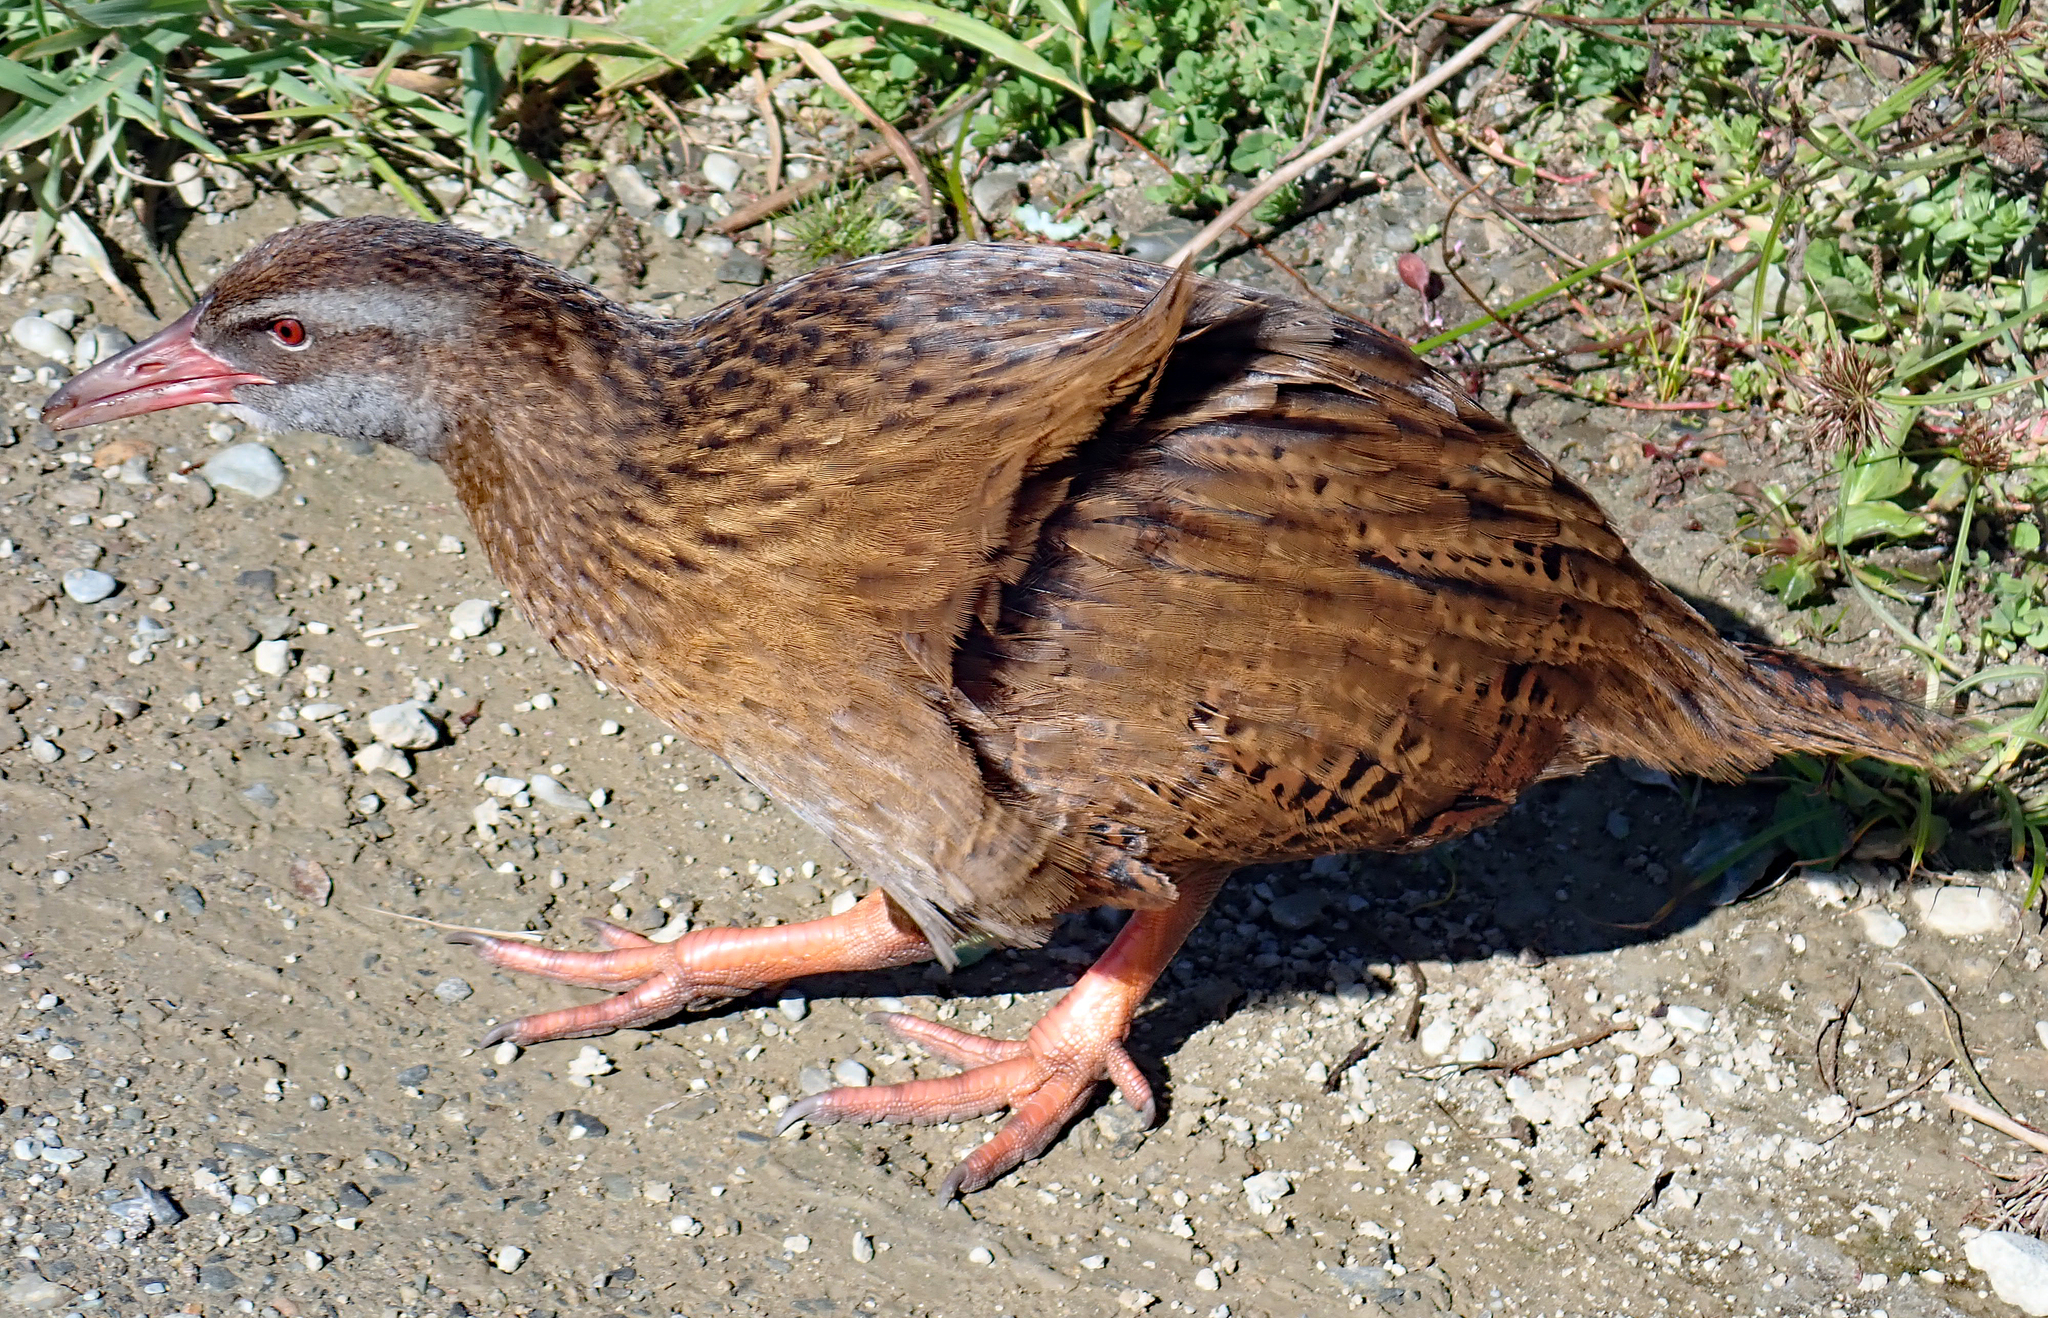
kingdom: Animalia
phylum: Chordata
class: Aves
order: Gruiformes
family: Rallidae
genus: Gallirallus
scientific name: Gallirallus australis
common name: Weka
